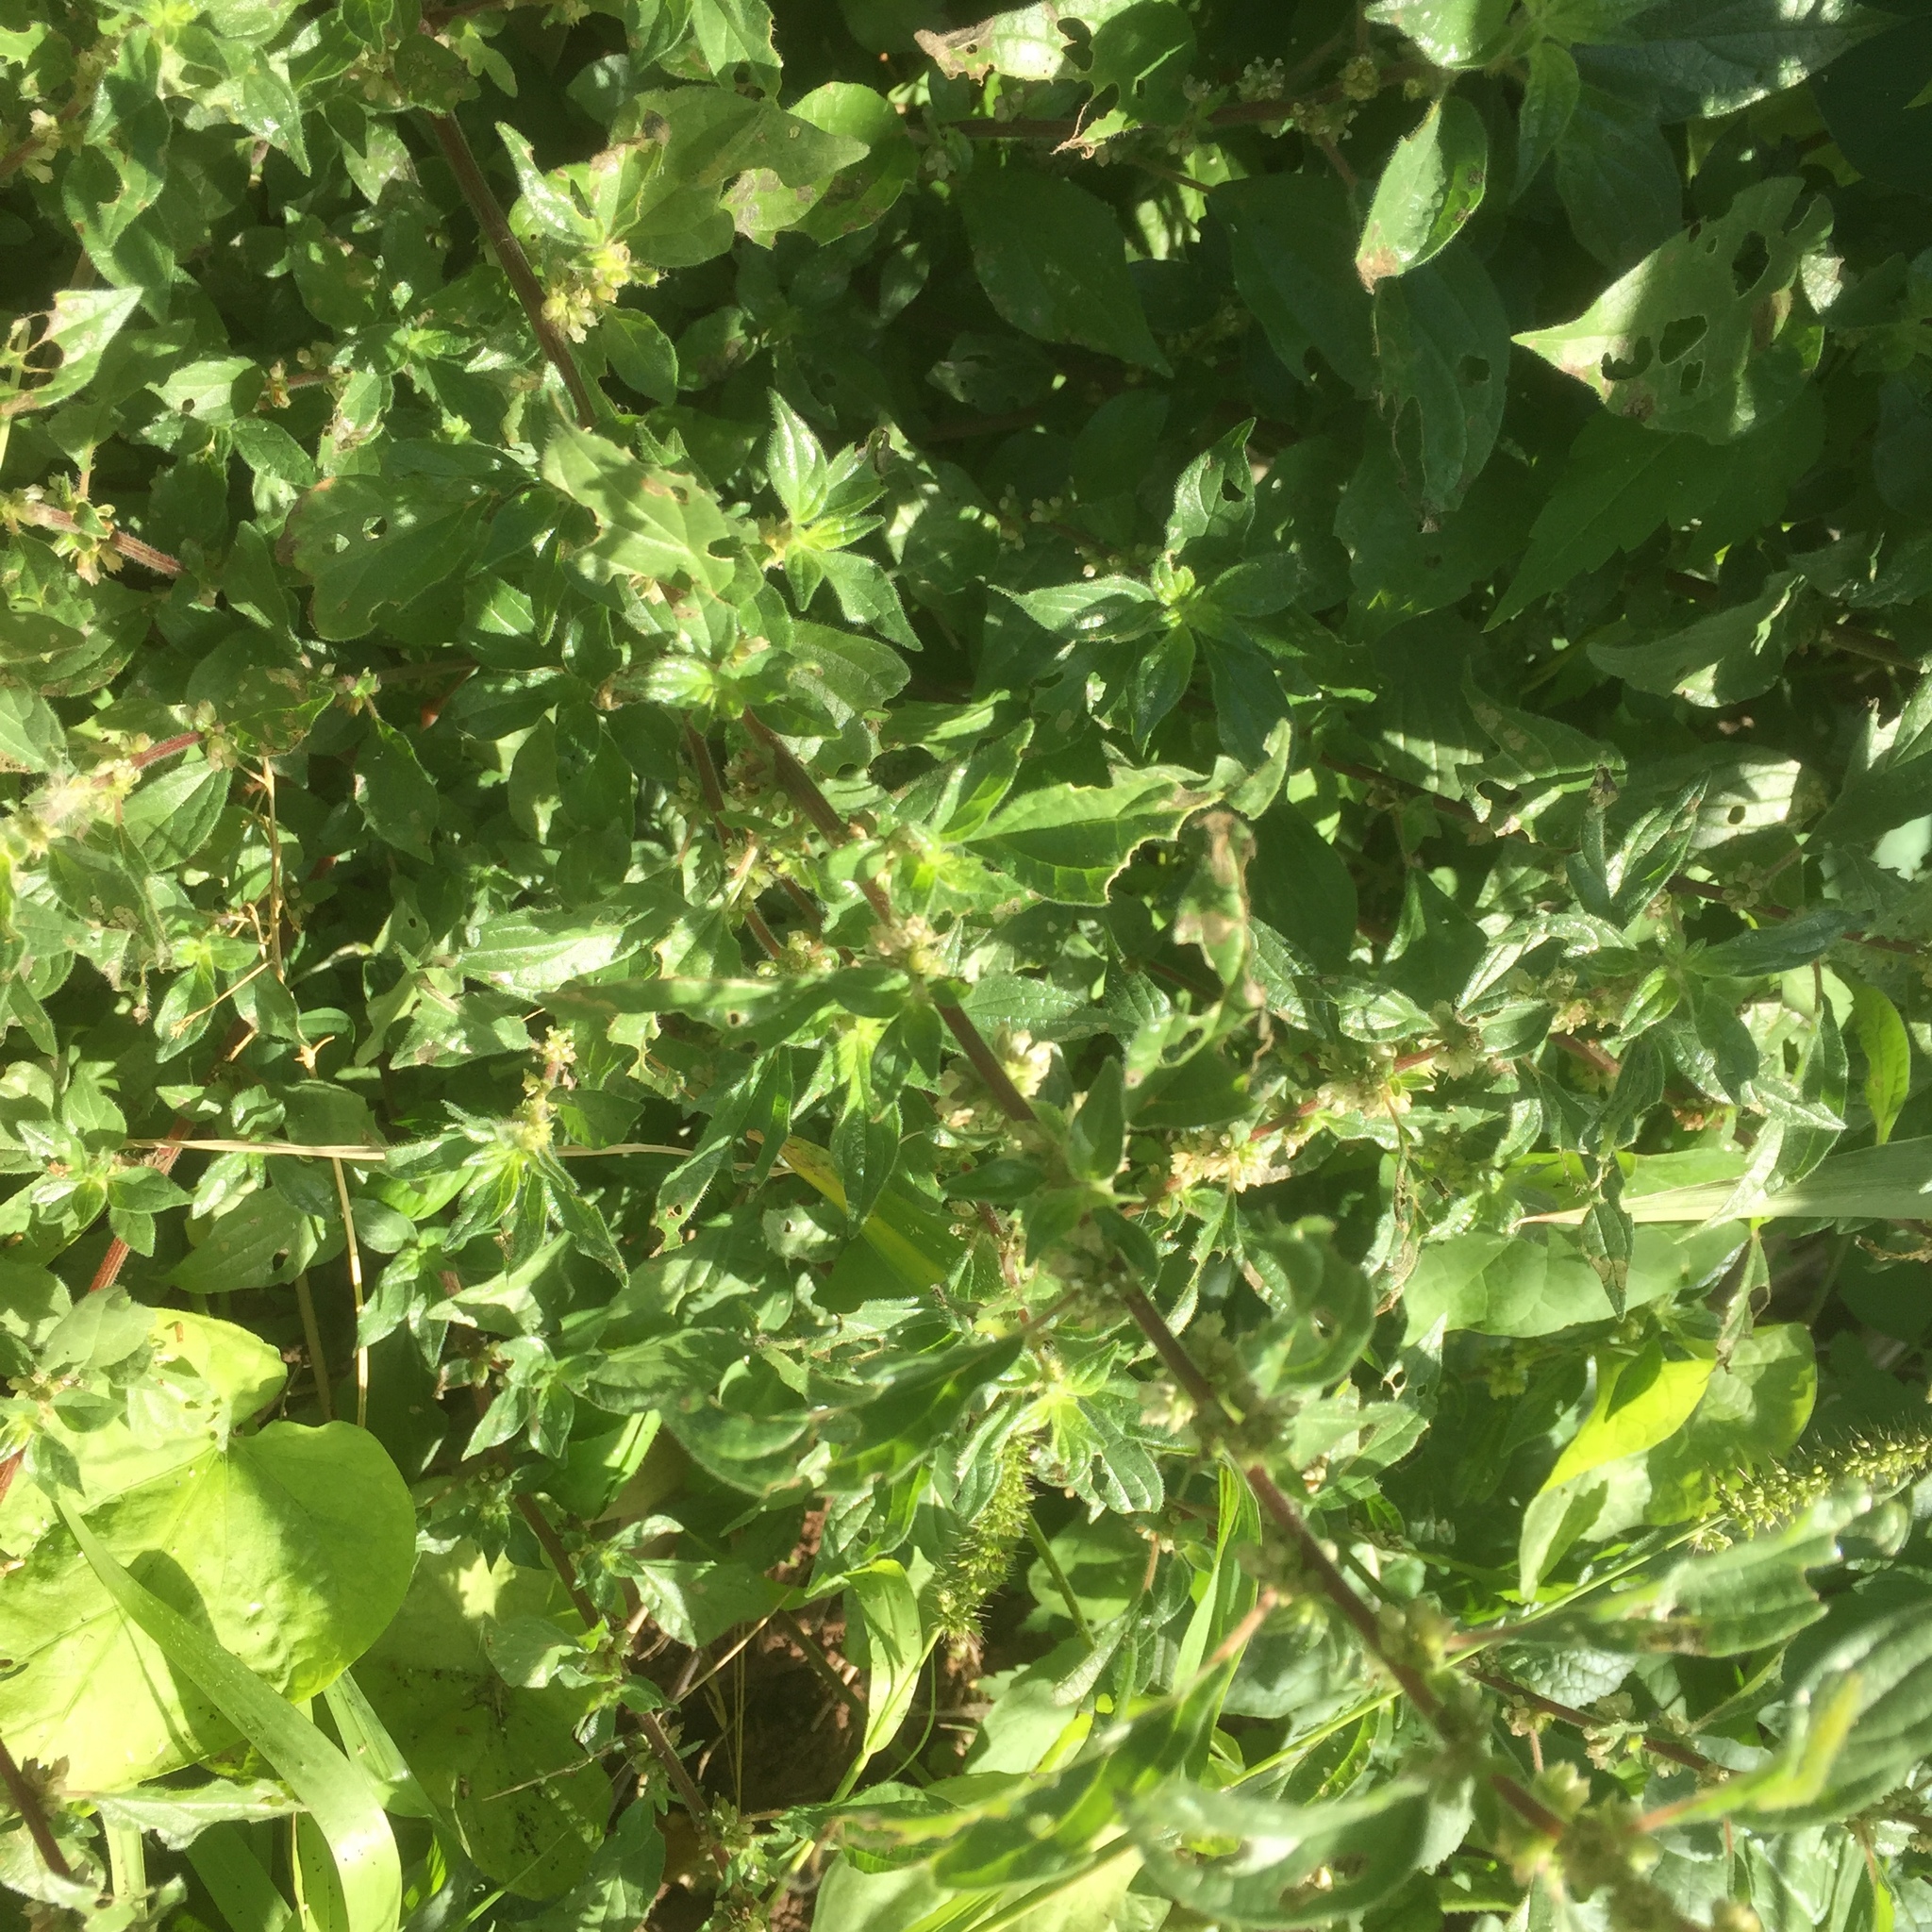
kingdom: Plantae
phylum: Tracheophyta
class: Magnoliopsida
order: Rosales
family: Urticaceae
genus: Parietaria
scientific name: Parietaria judaica
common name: Pellitory-of-the-wall
